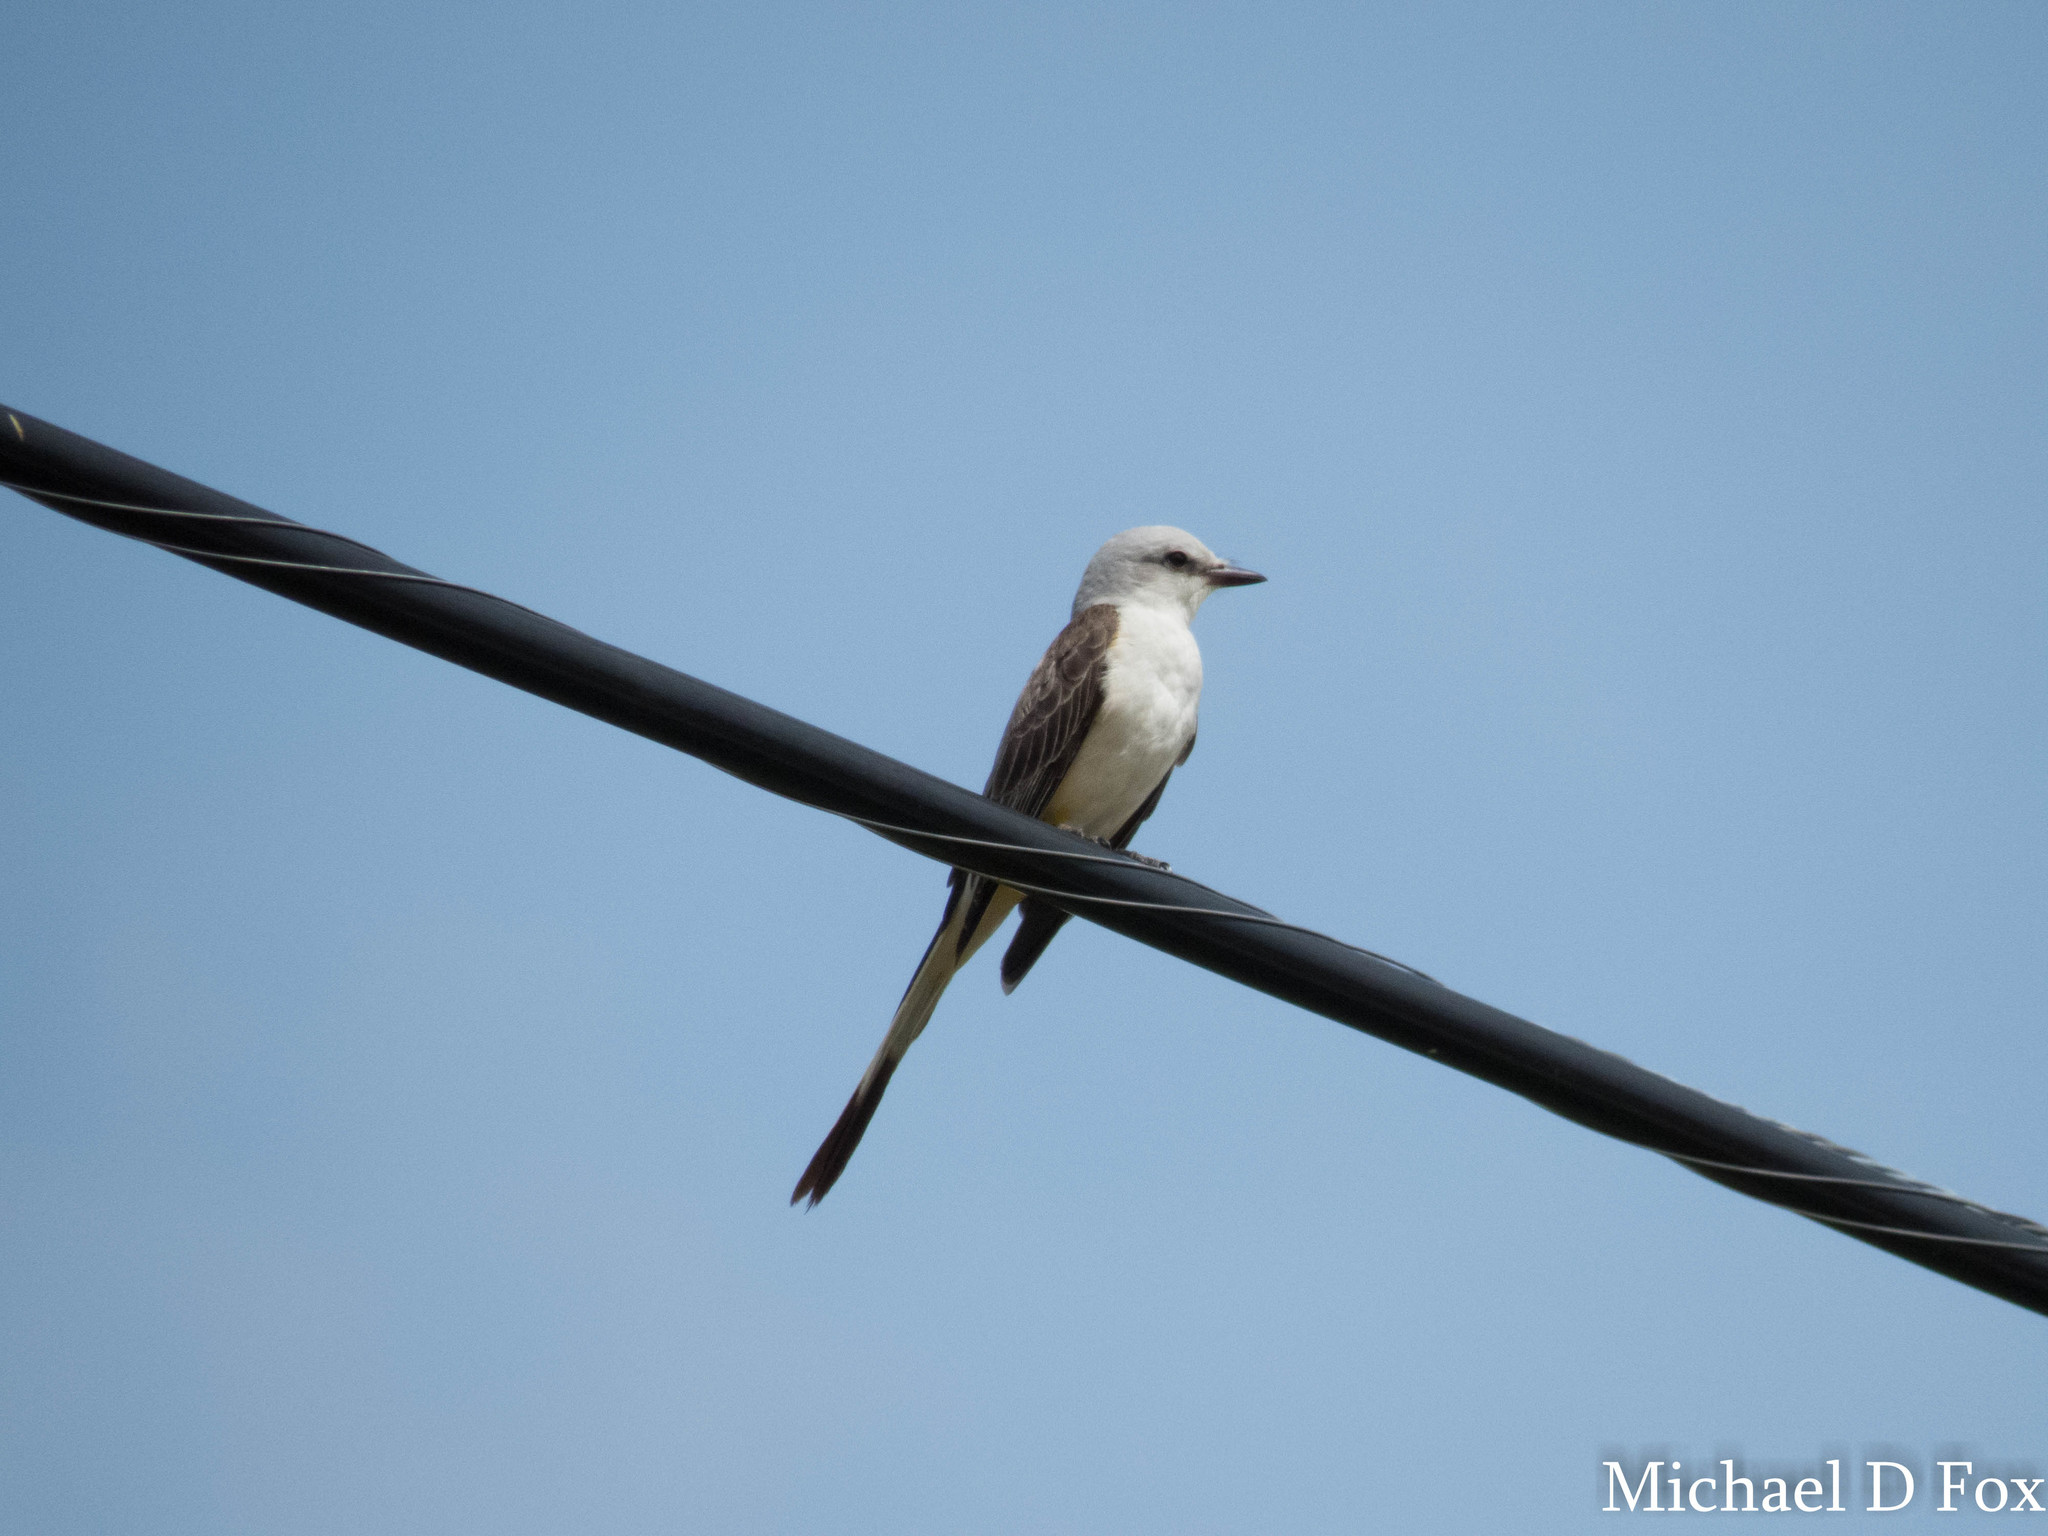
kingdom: Animalia
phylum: Chordata
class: Aves
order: Passeriformes
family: Tyrannidae
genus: Tyrannus
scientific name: Tyrannus forficatus
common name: Scissor-tailed flycatcher
